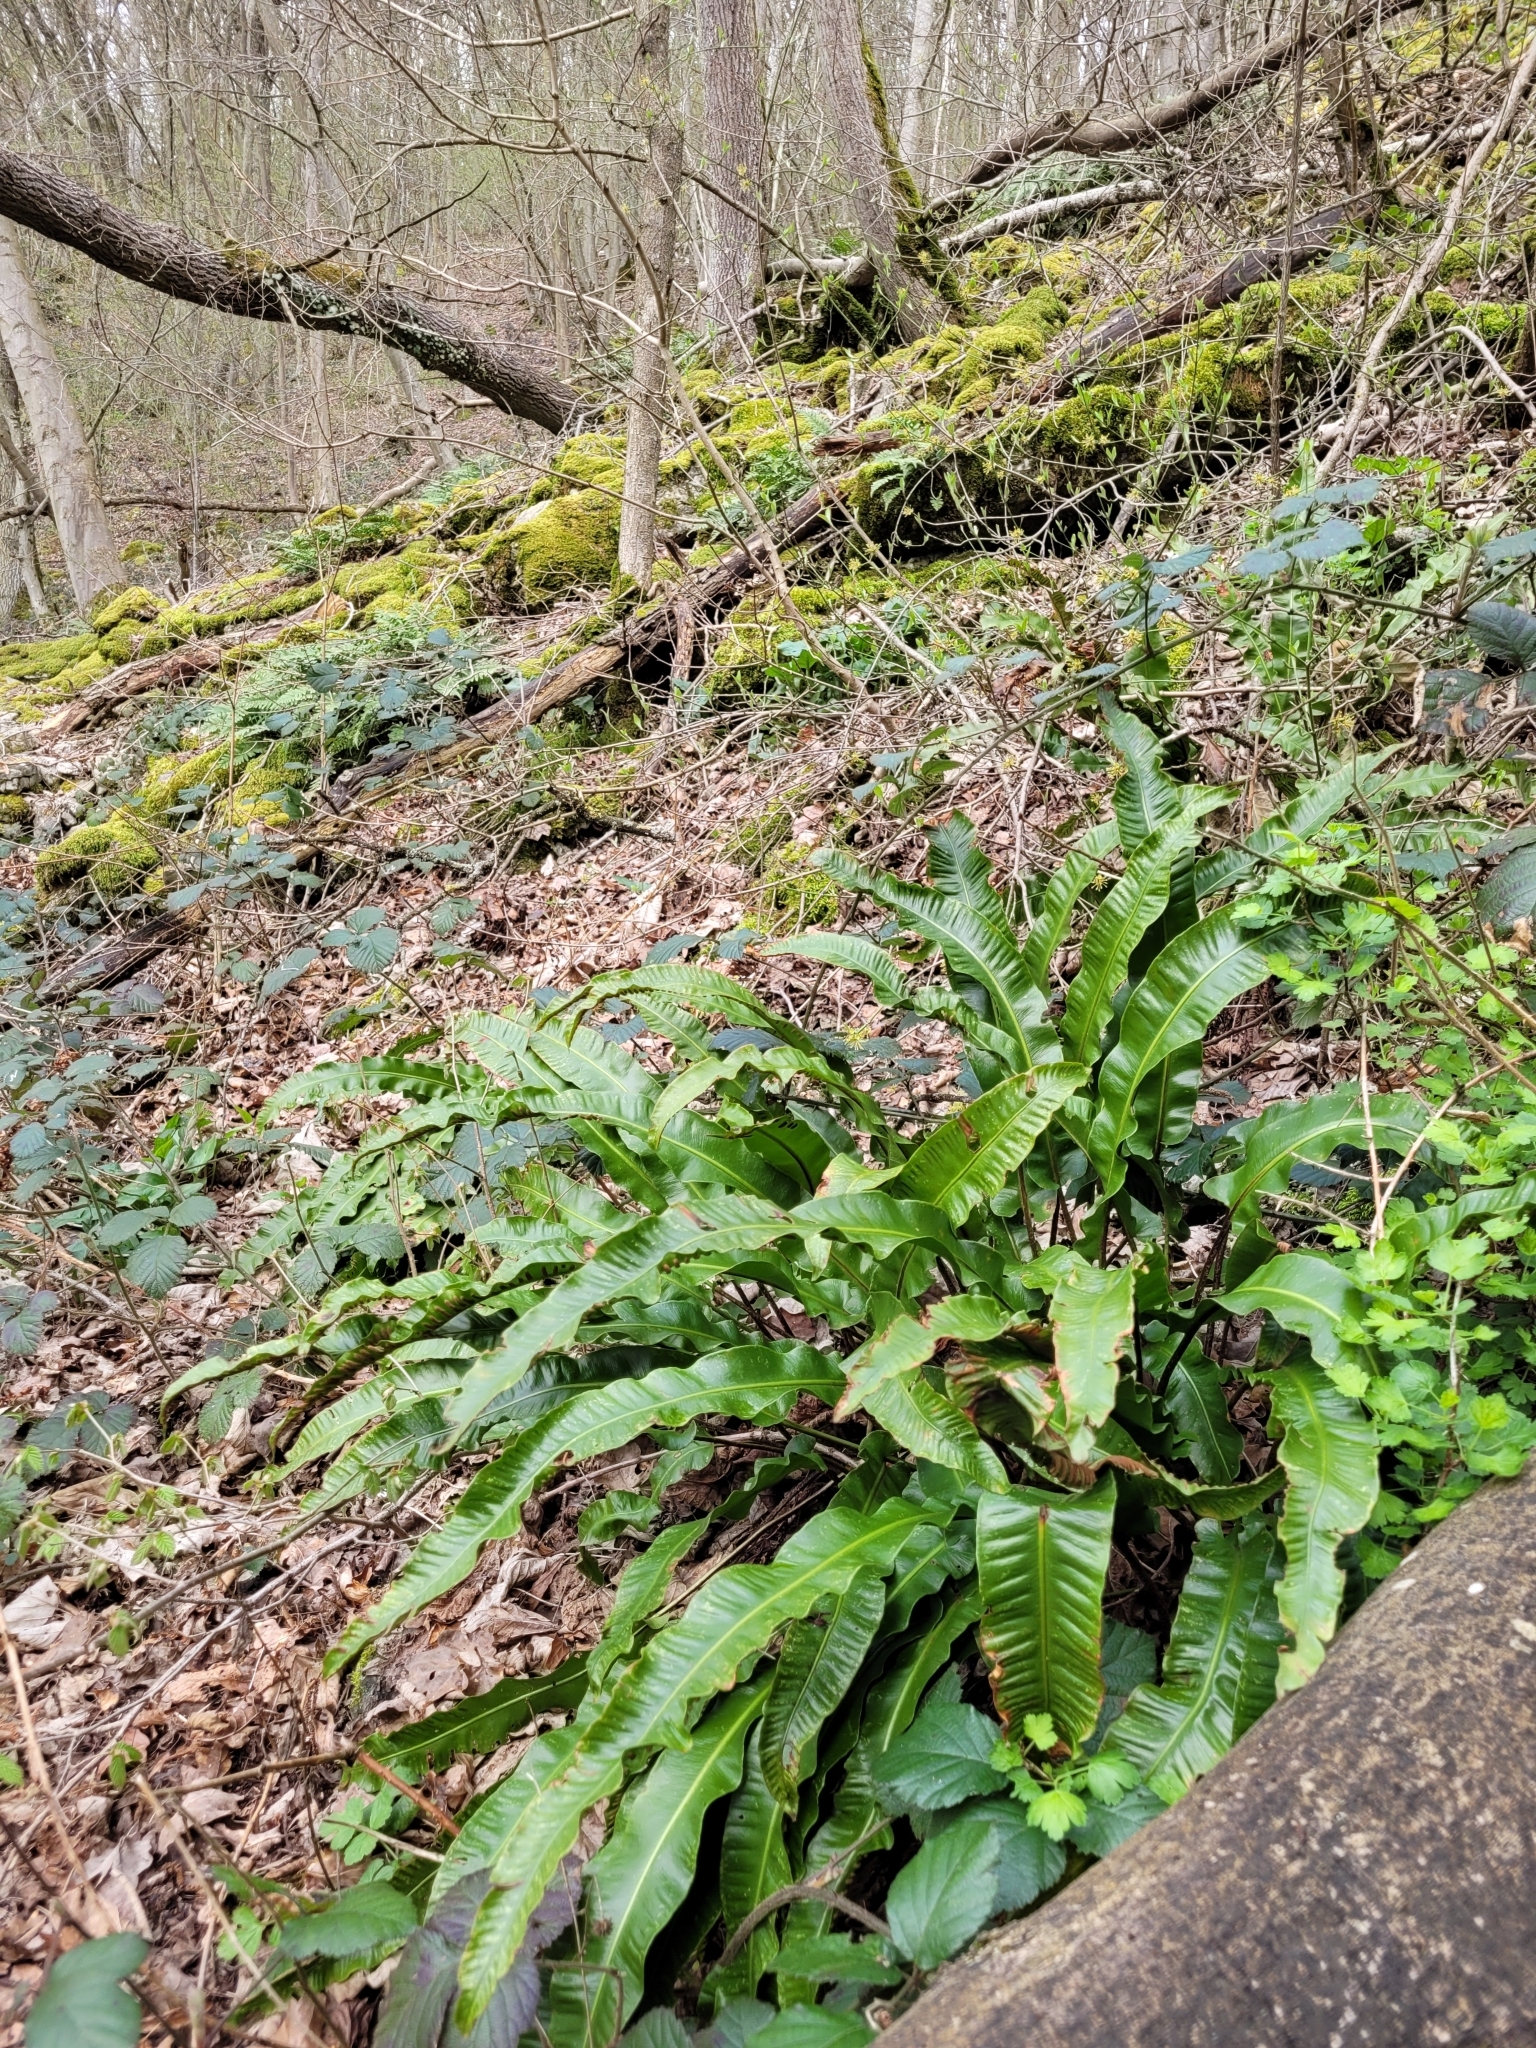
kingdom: Plantae
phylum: Tracheophyta
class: Polypodiopsida
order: Polypodiales
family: Aspleniaceae
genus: Asplenium
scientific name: Asplenium scolopendrium
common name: Hart's-tongue fern
